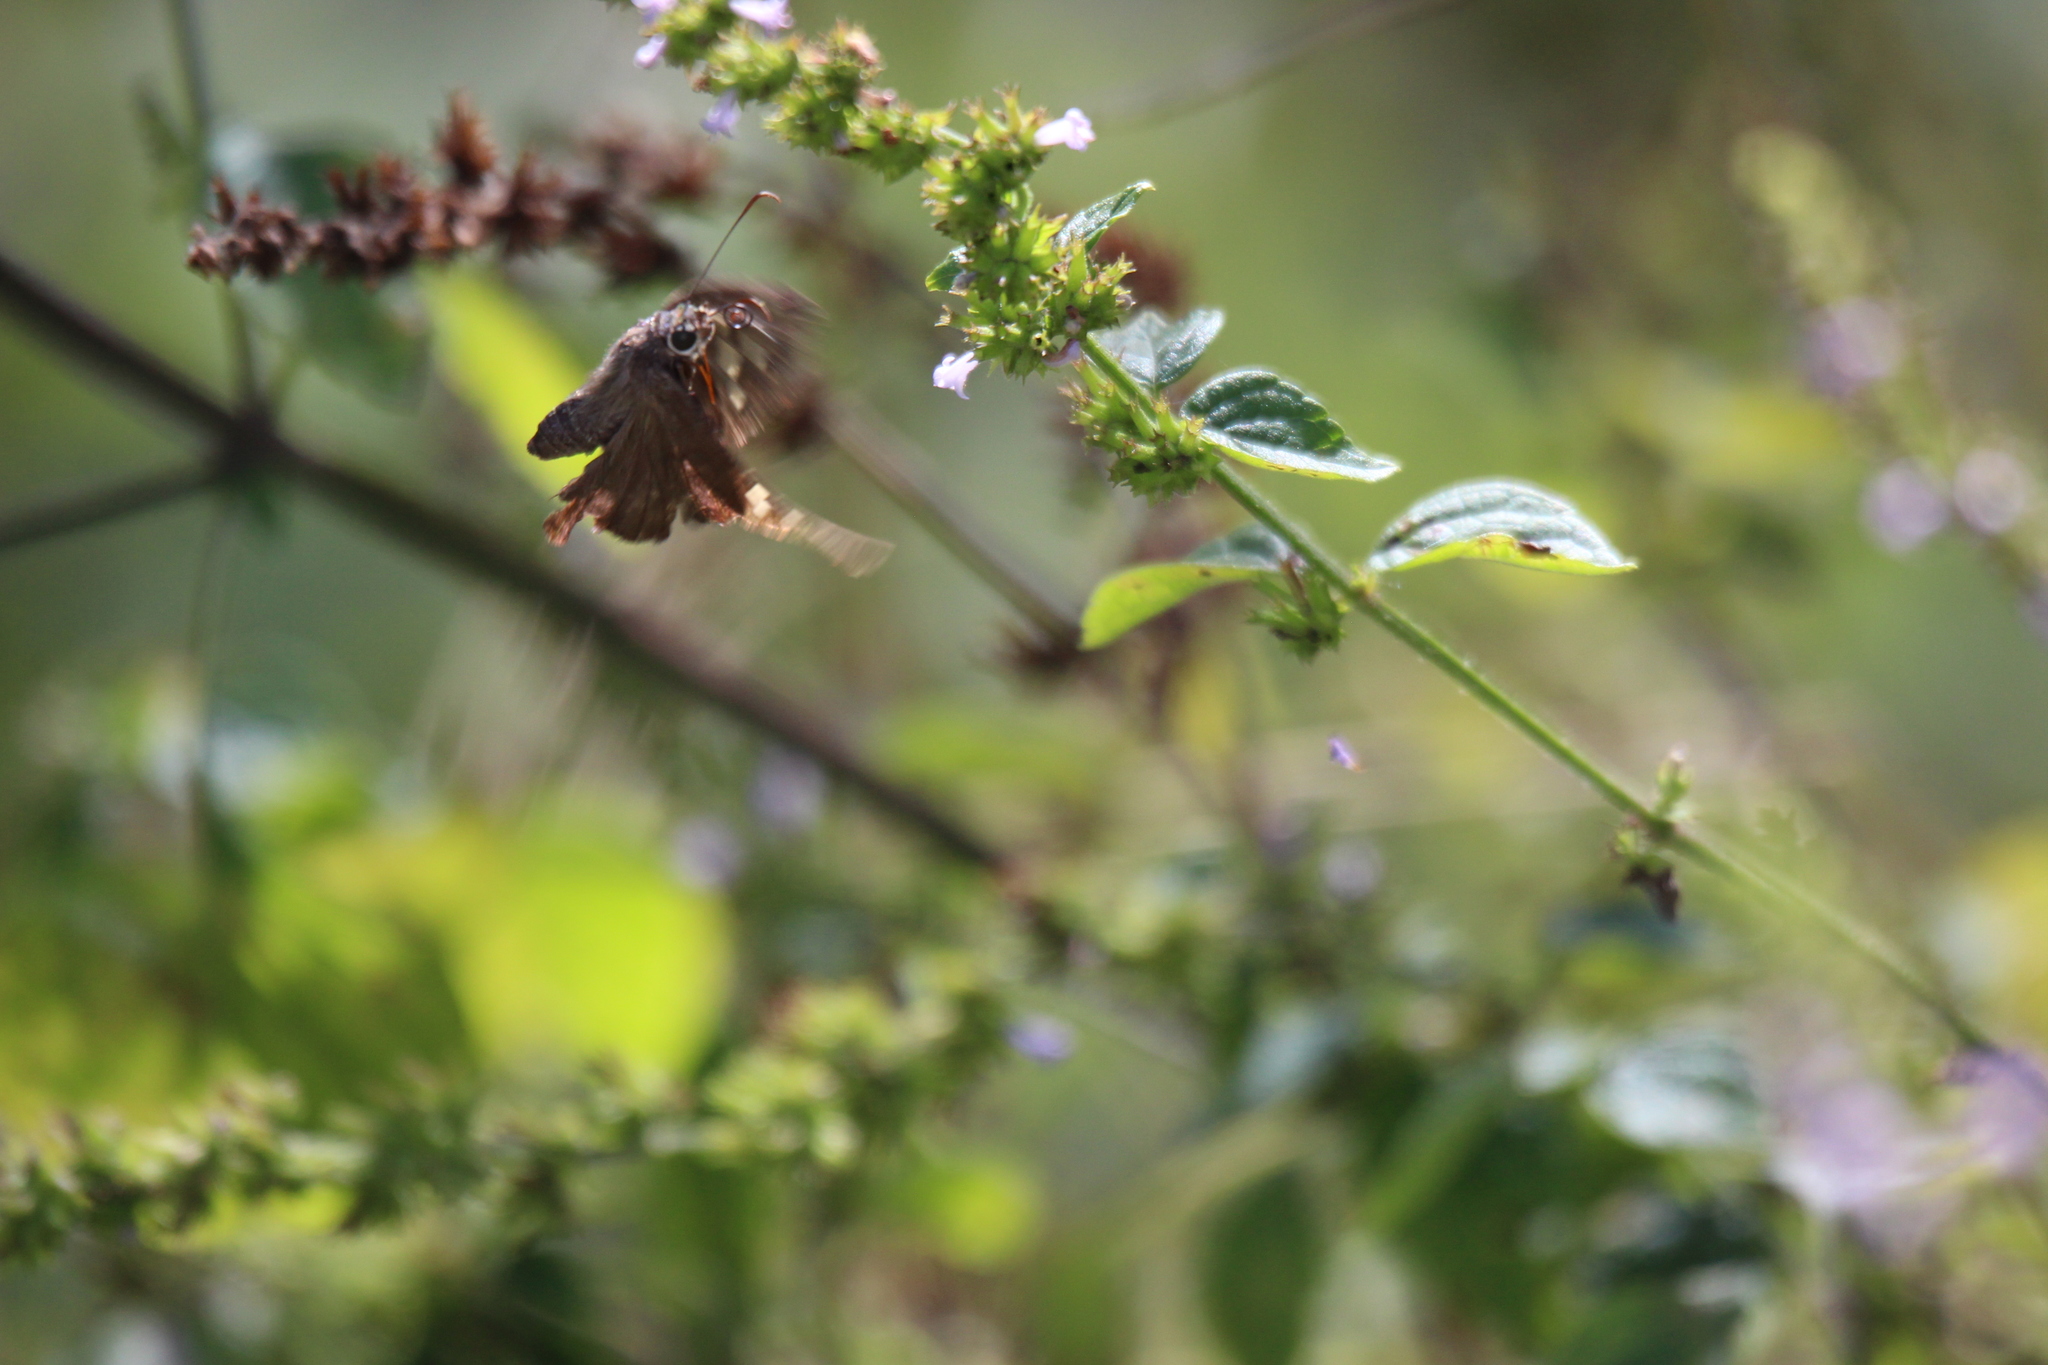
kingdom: Animalia
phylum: Arthropoda
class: Insecta
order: Lepidoptera
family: Hesperiidae
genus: Thorybes
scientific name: Thorybes
